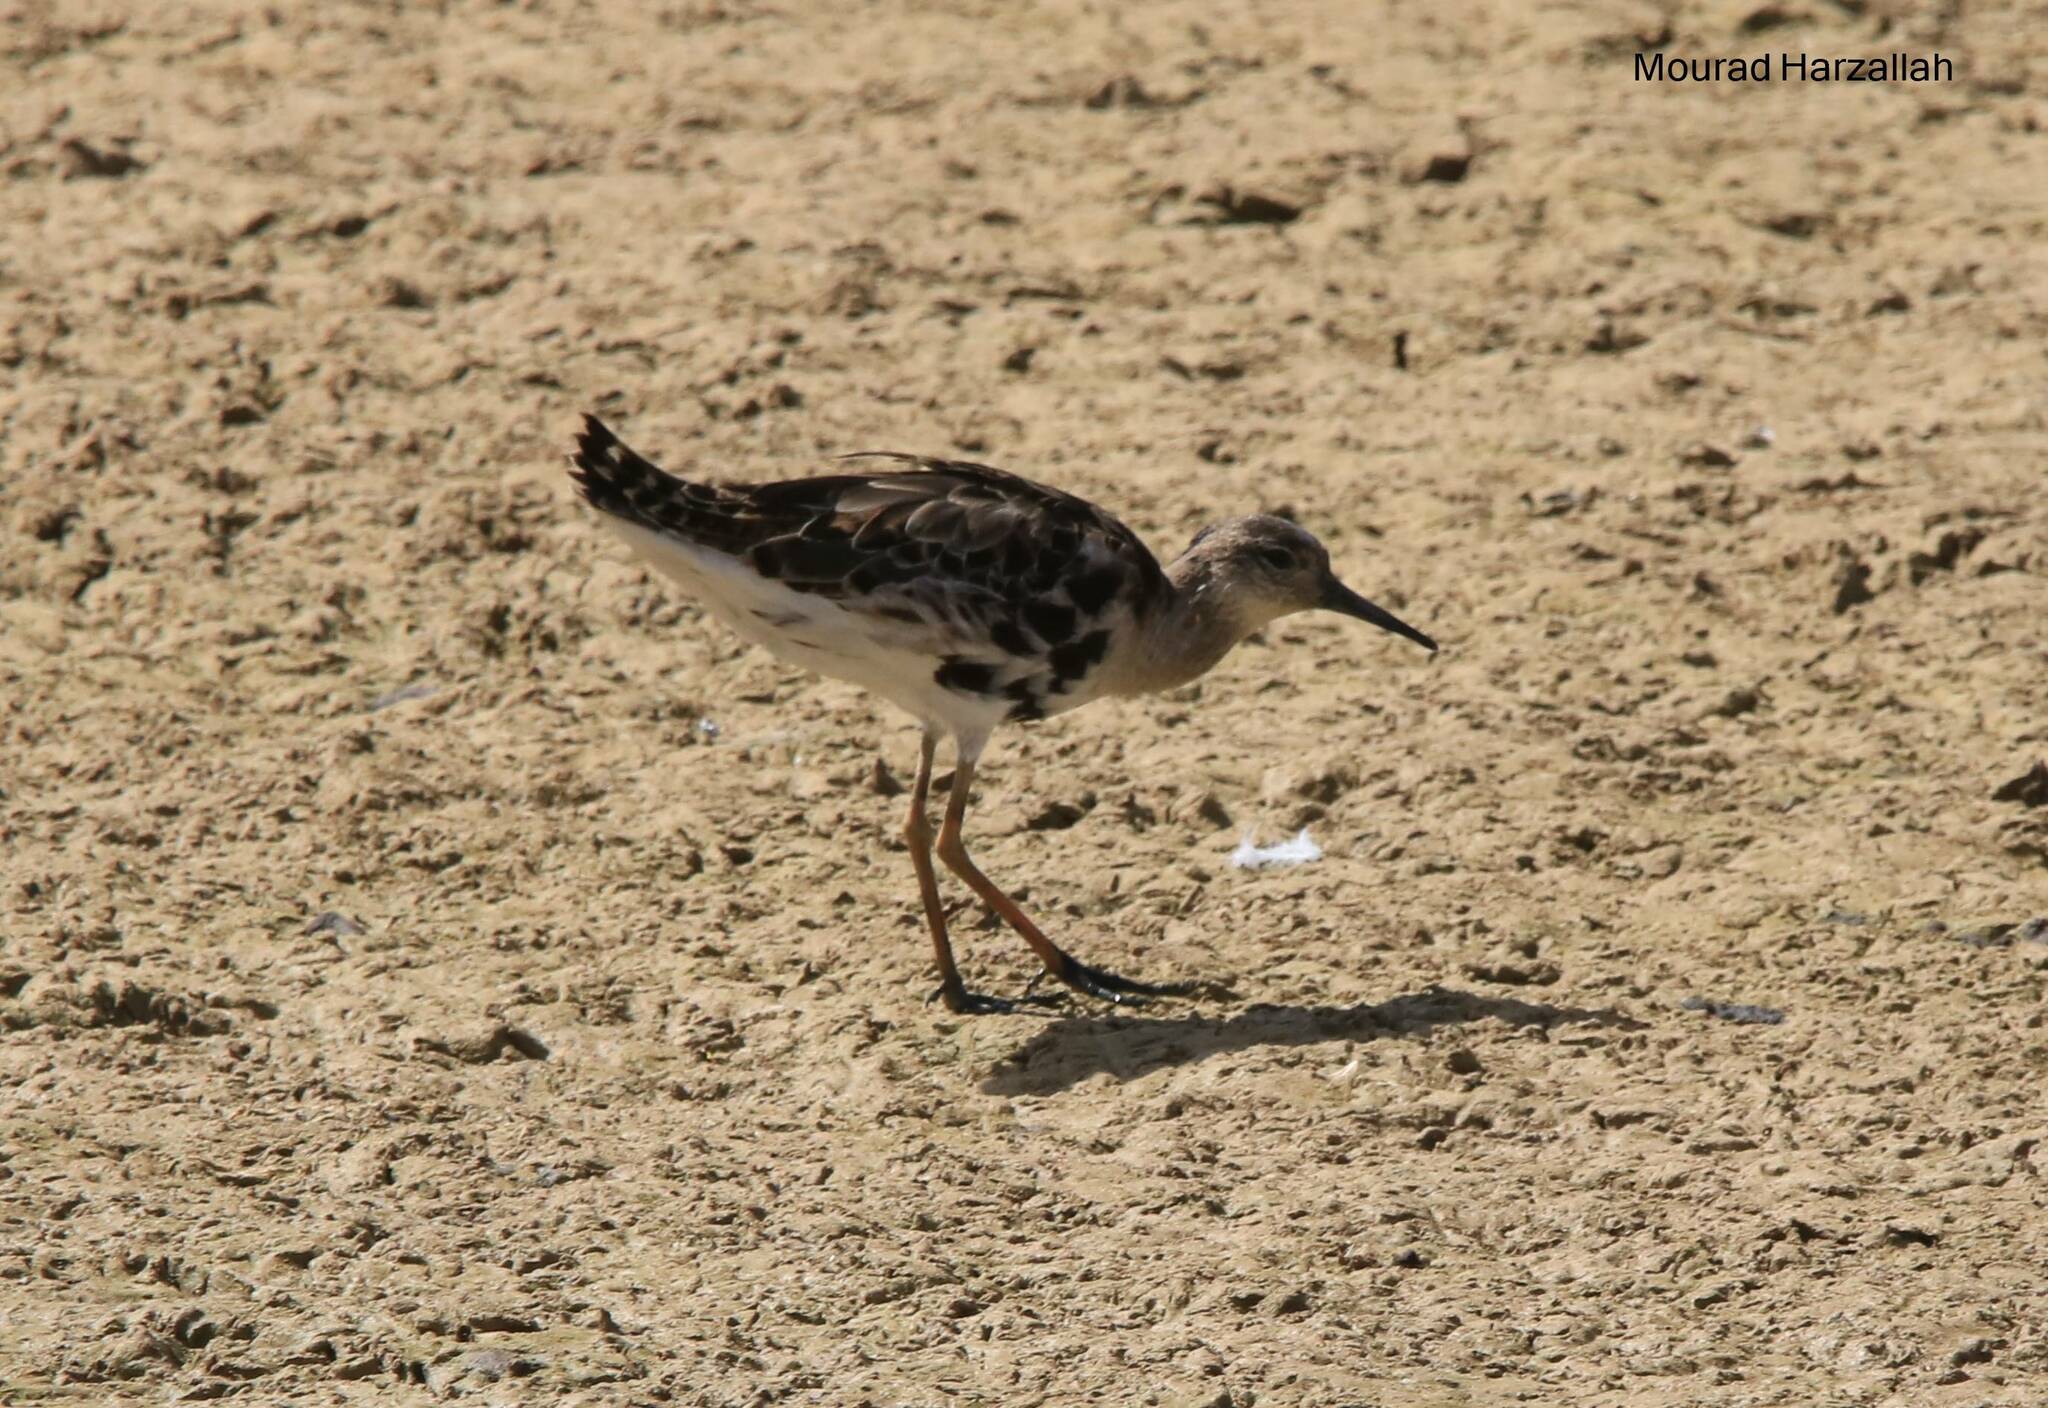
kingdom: Animalia
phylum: Chordata
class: Aves
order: Charadriiformes
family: Scolopacidae
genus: Calidris
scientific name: Calidris pugnax
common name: Ruff
